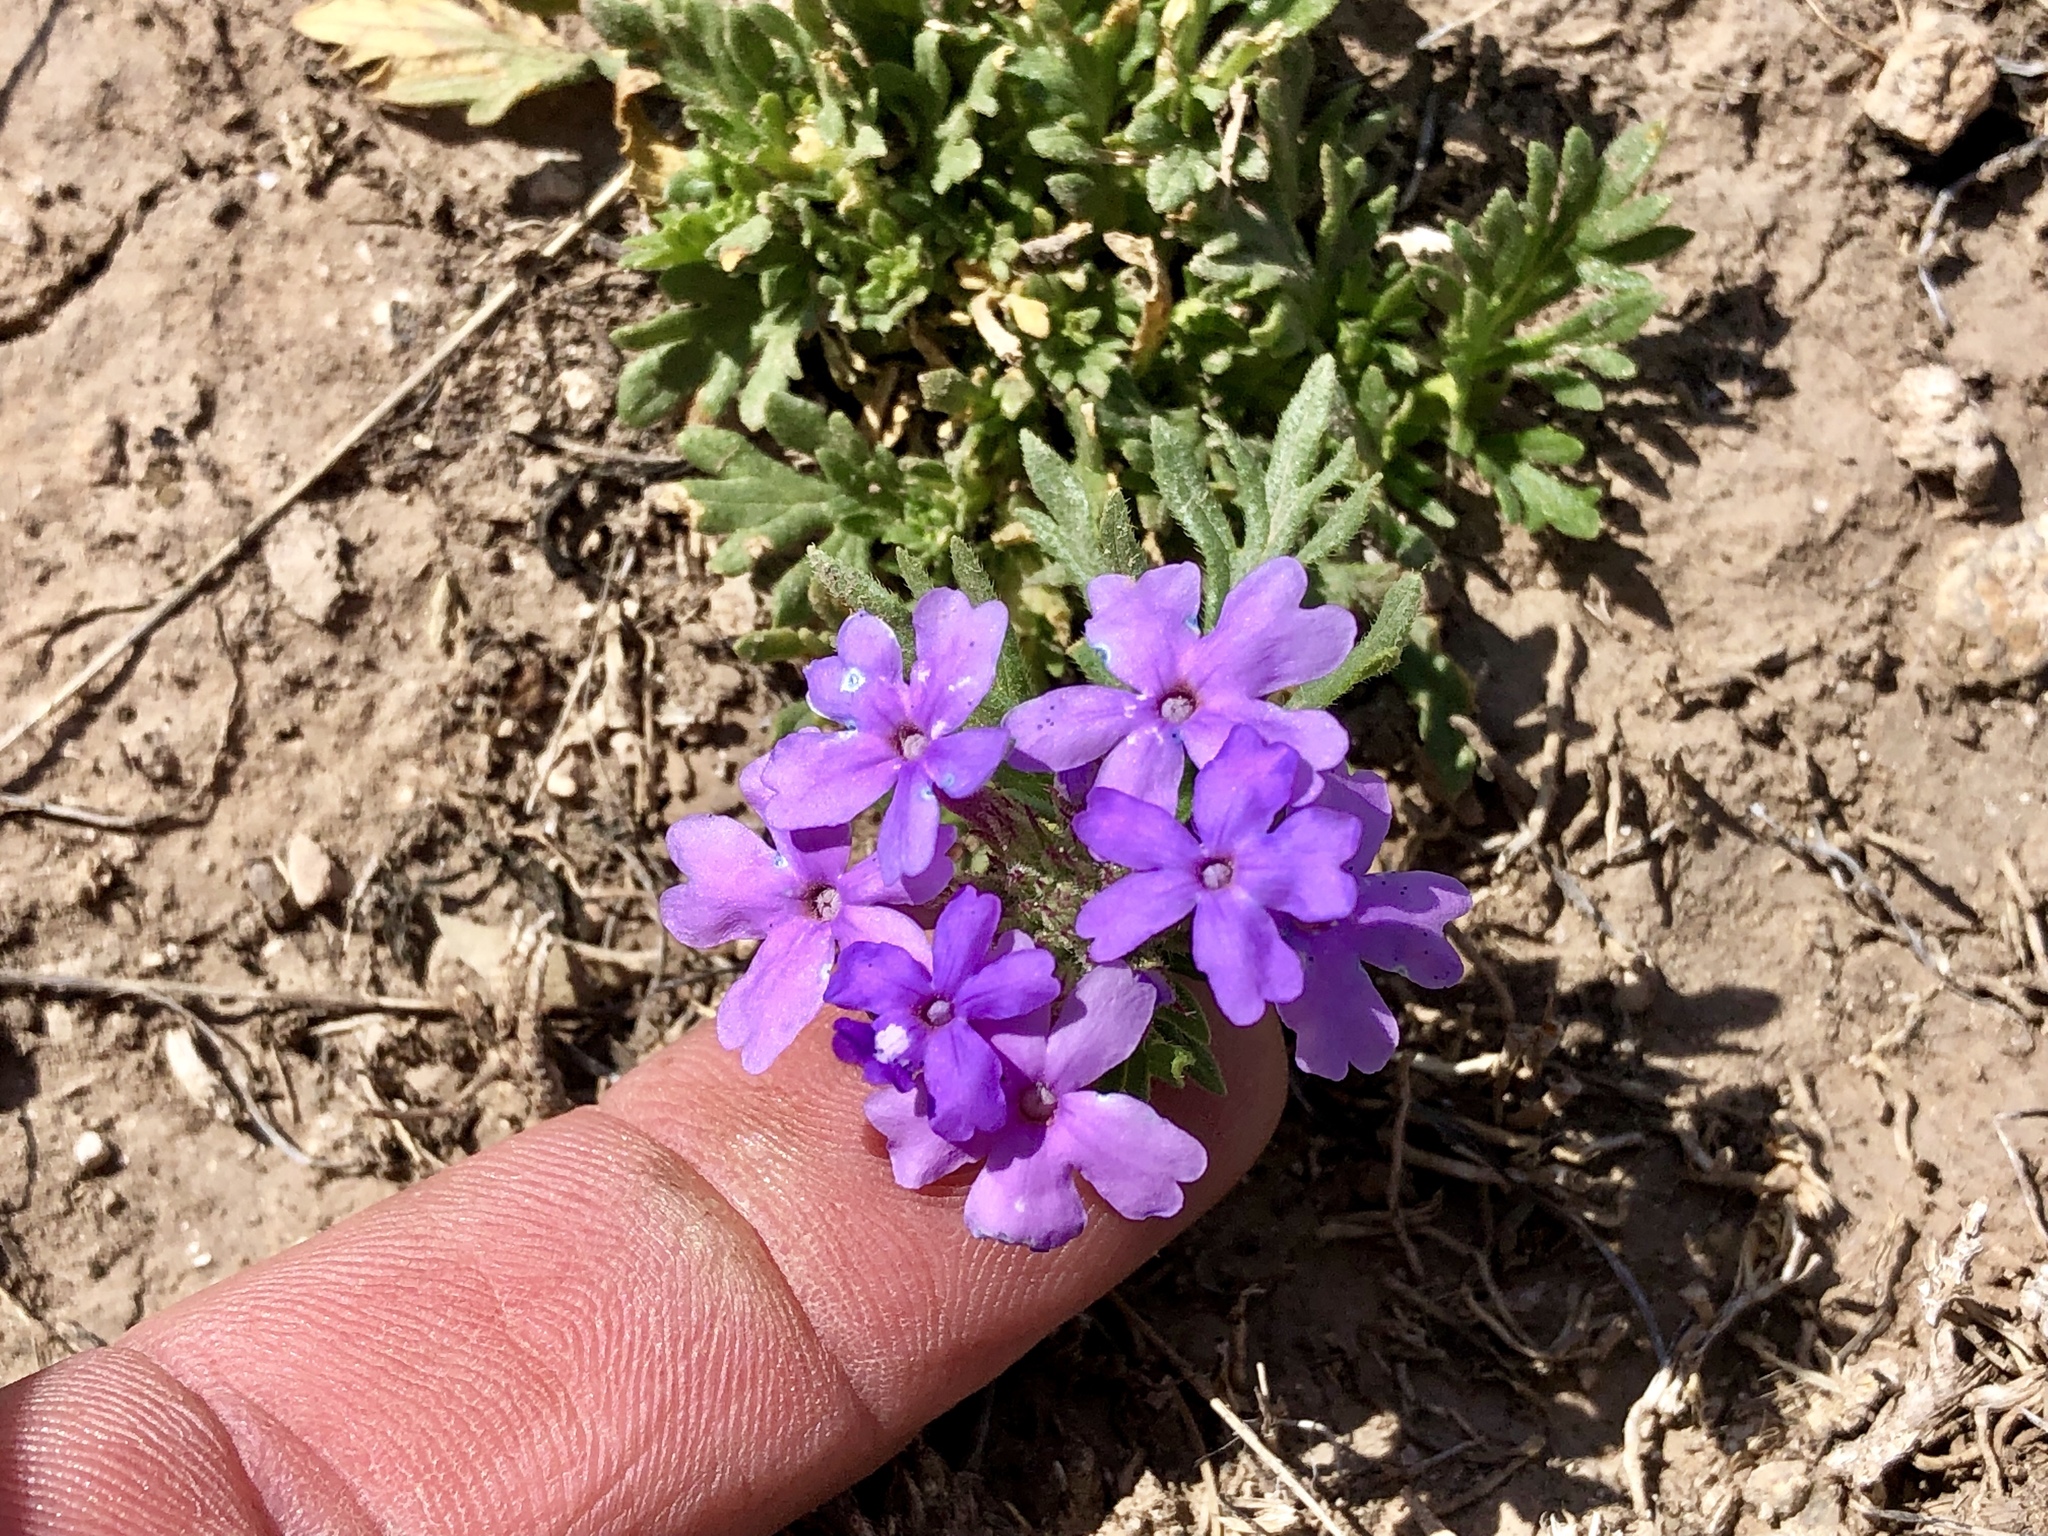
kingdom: Plantae
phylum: Tracheophyta
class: Magnoliopsida
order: Lamiales
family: Verbenaceae
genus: Verbena
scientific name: Verbena bipinnatifida
